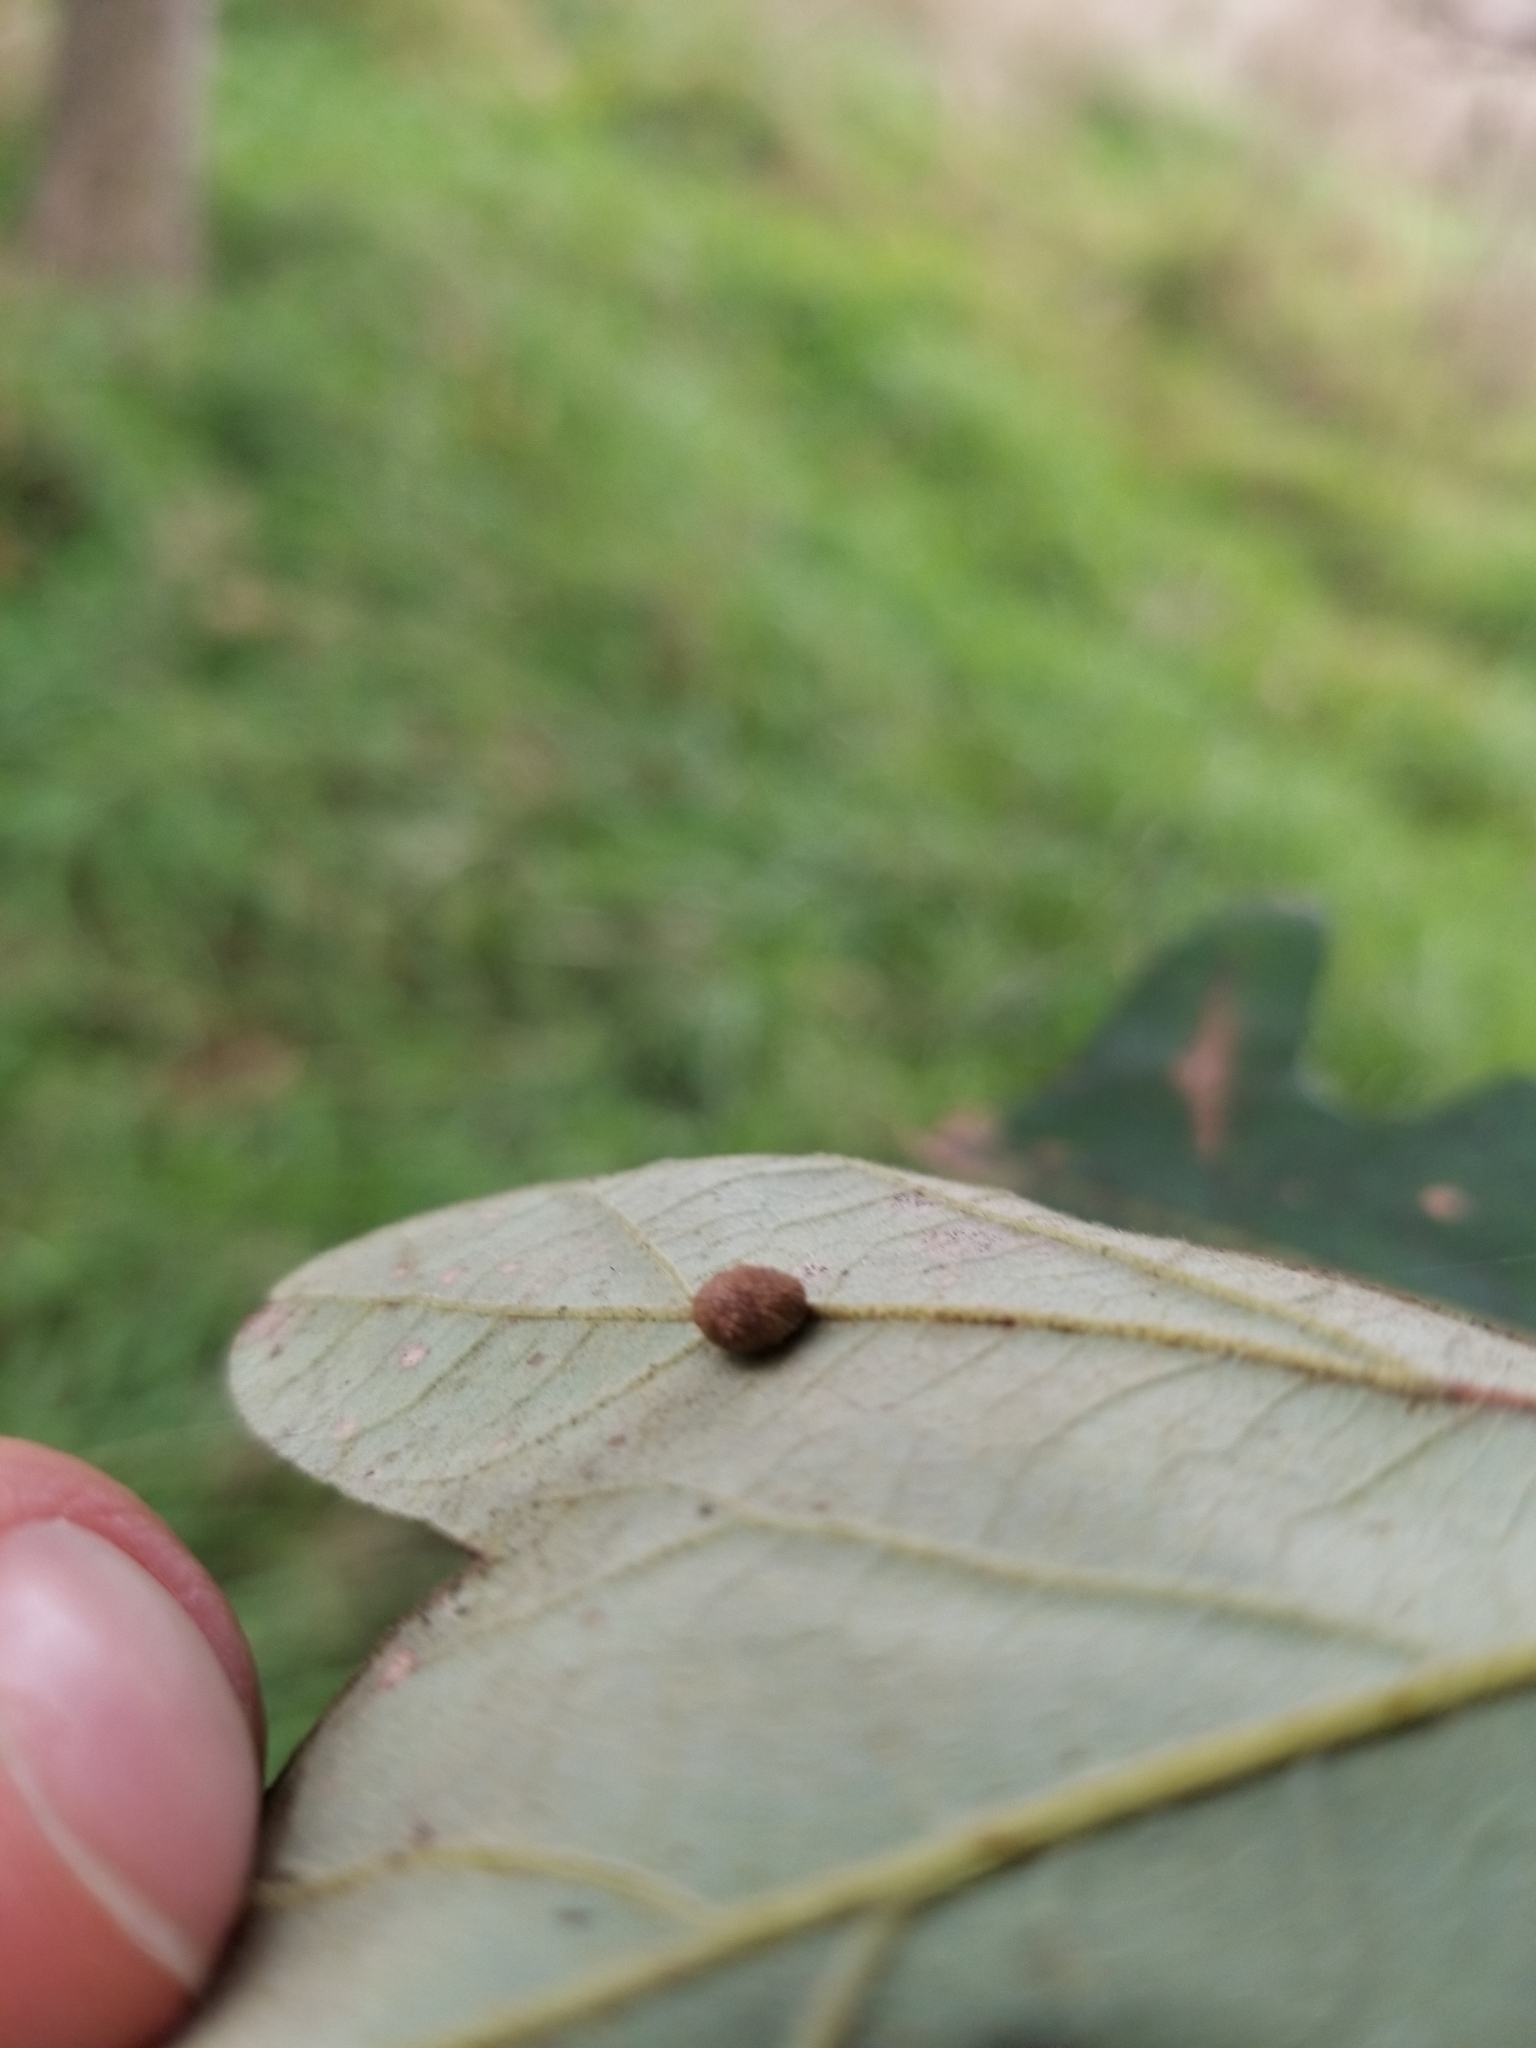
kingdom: Animalia
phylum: Arthropoda
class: Insecta
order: Hymenoptera
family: Cynipidae
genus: Acraspis
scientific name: Acraspis quercushirta
